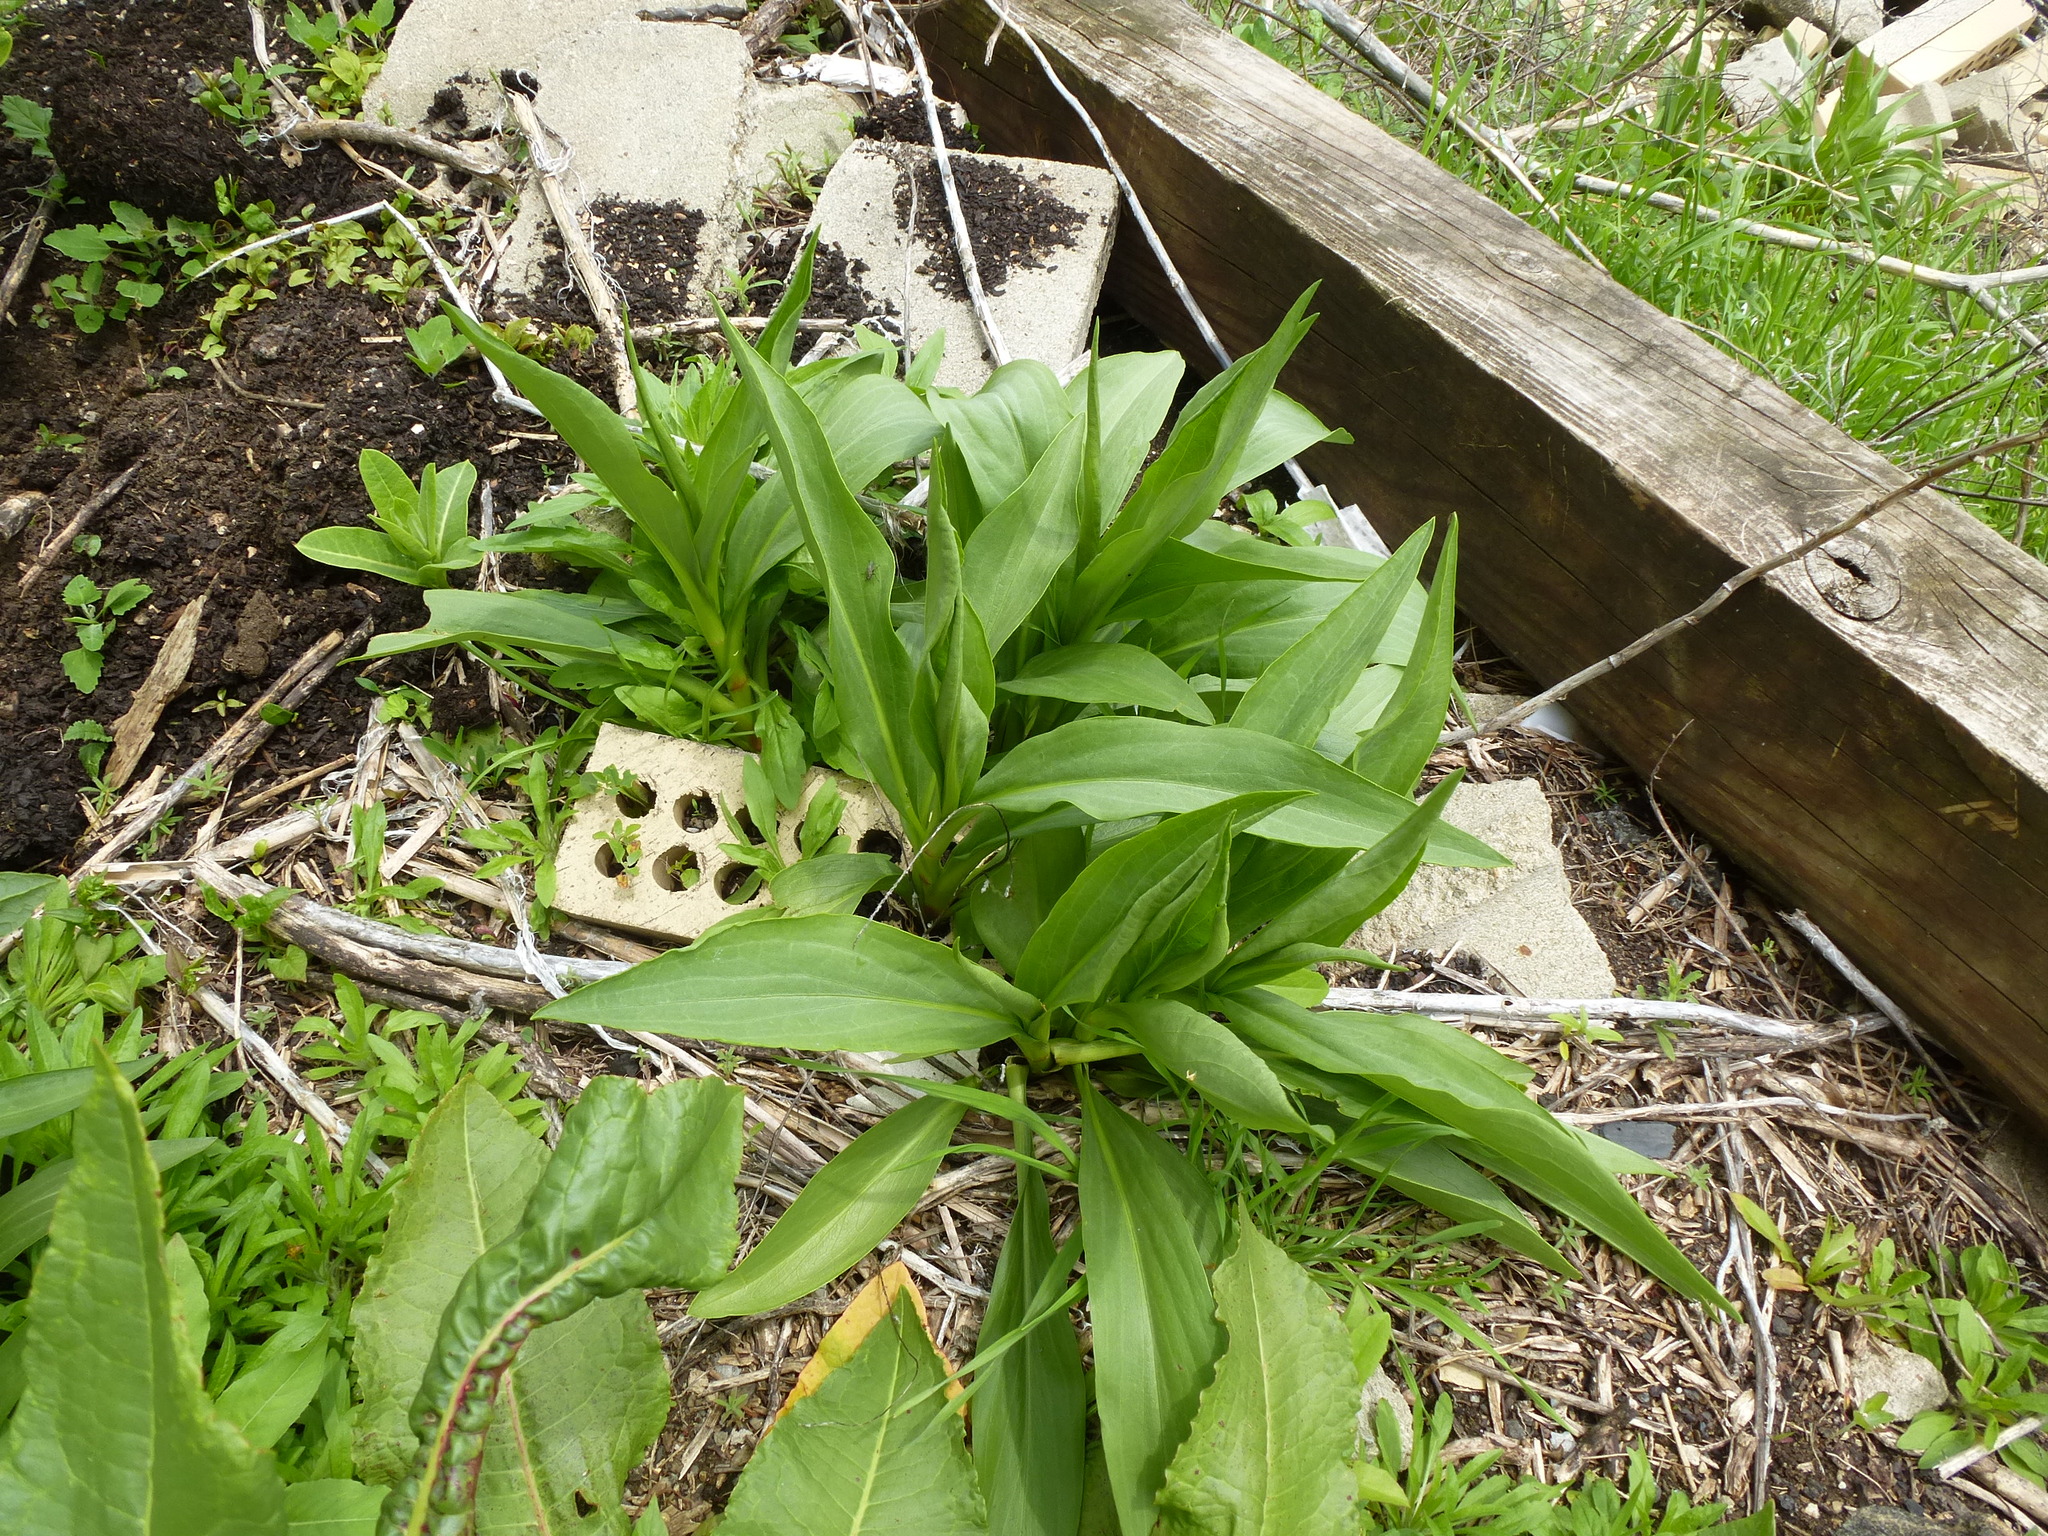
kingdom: Plantae
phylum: Tracheophyta
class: Magnoliopsida
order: Asterales
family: Asteraceae
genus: Solidago
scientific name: Solidago sempervirens
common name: Salt-marsh goldenrod
